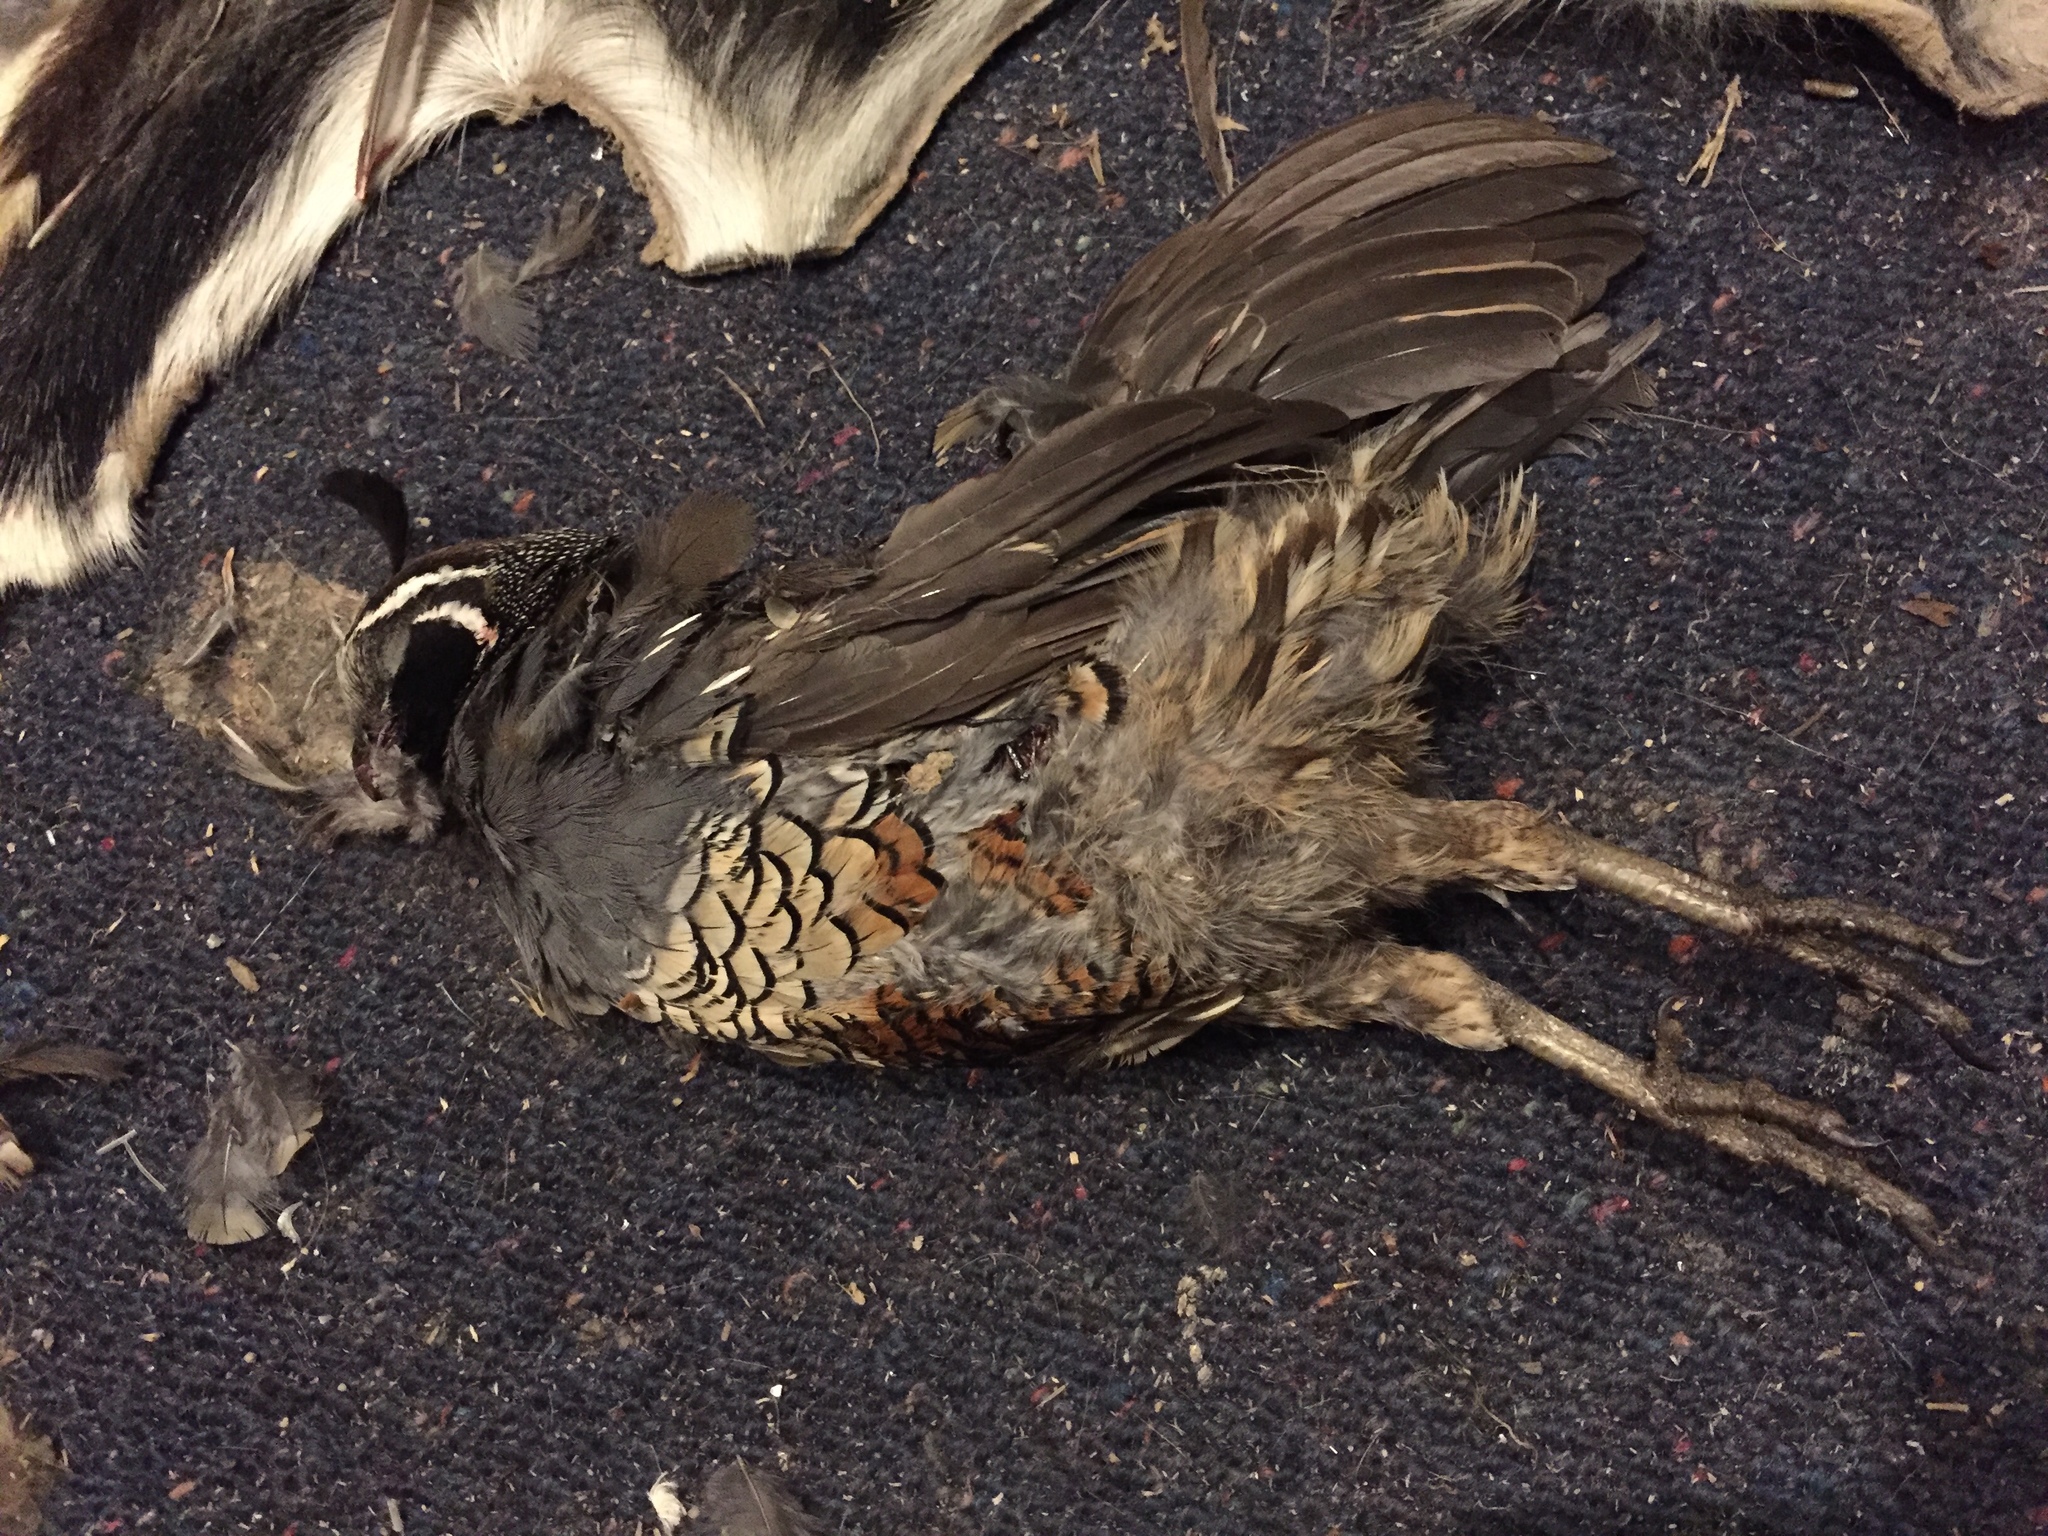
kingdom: Animalia
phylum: Chordata
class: Aves
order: Galliformes
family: Odontophoridae
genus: Callipepla
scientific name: Callipepla californica
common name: California quail
